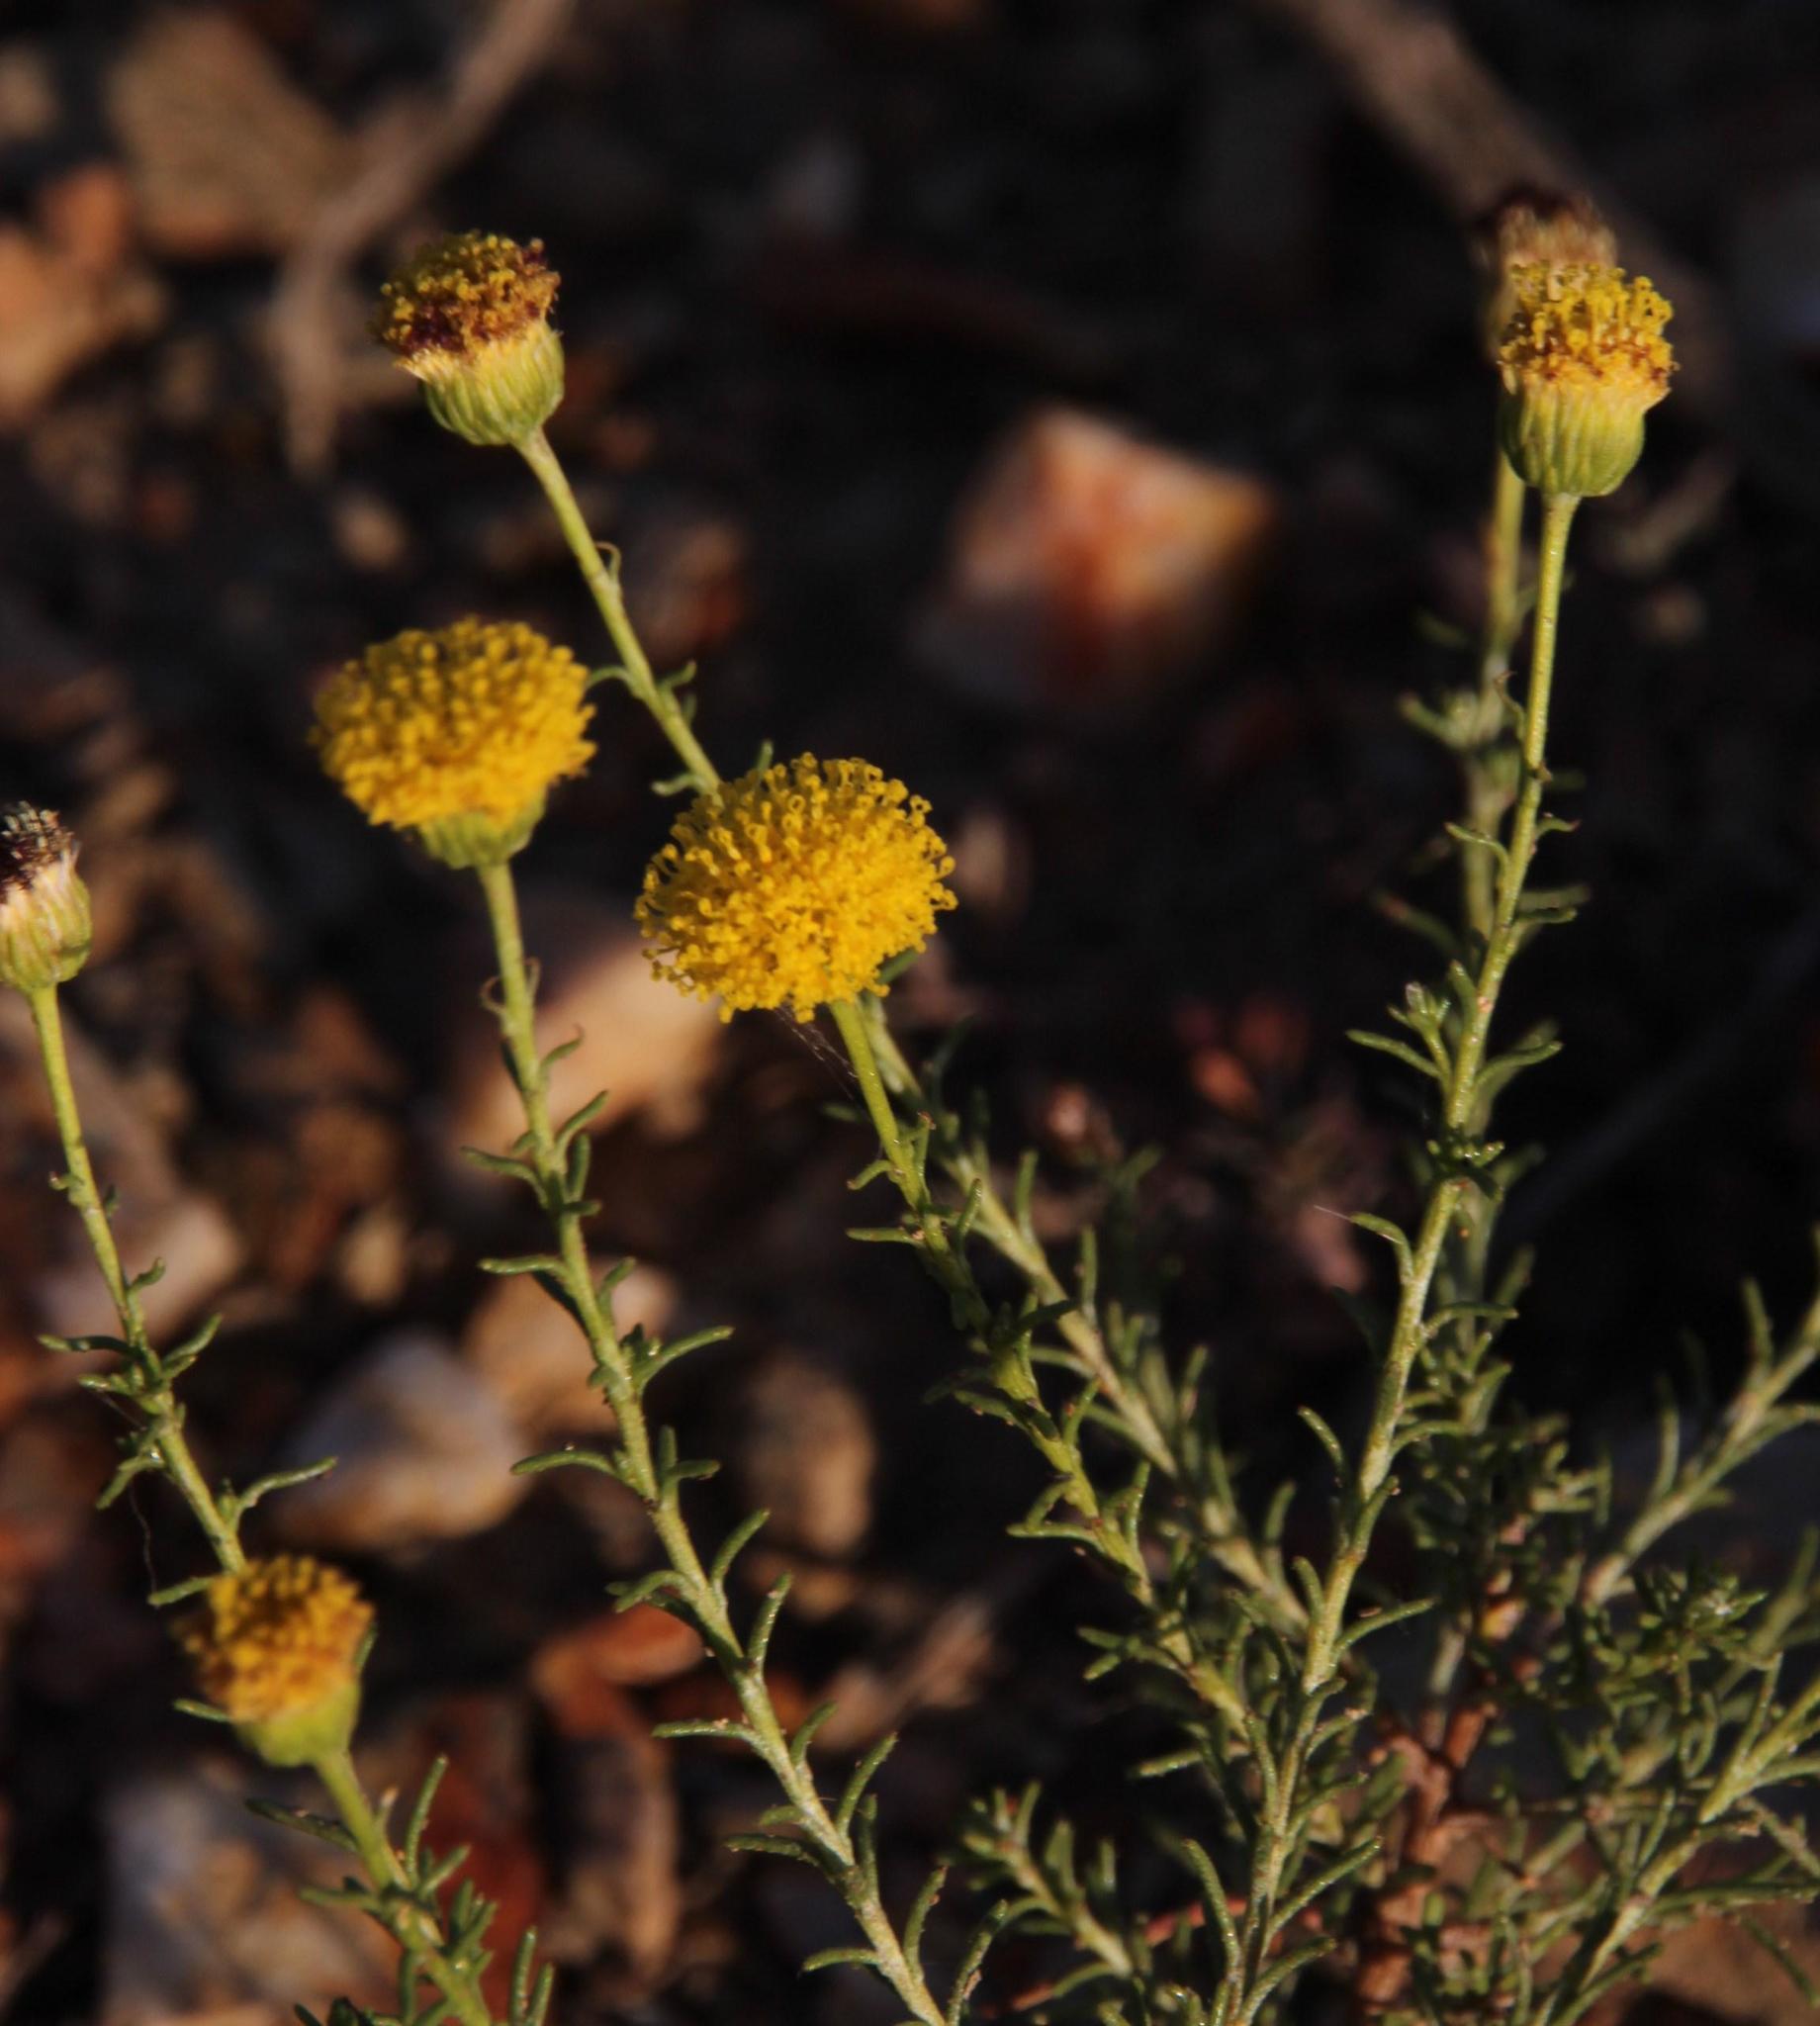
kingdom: Plantae
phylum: Tracheophyta
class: Magnoliopsida
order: Asterales
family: Asteraceae
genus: Chrysocoma
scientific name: Chrysocoma ciliata
